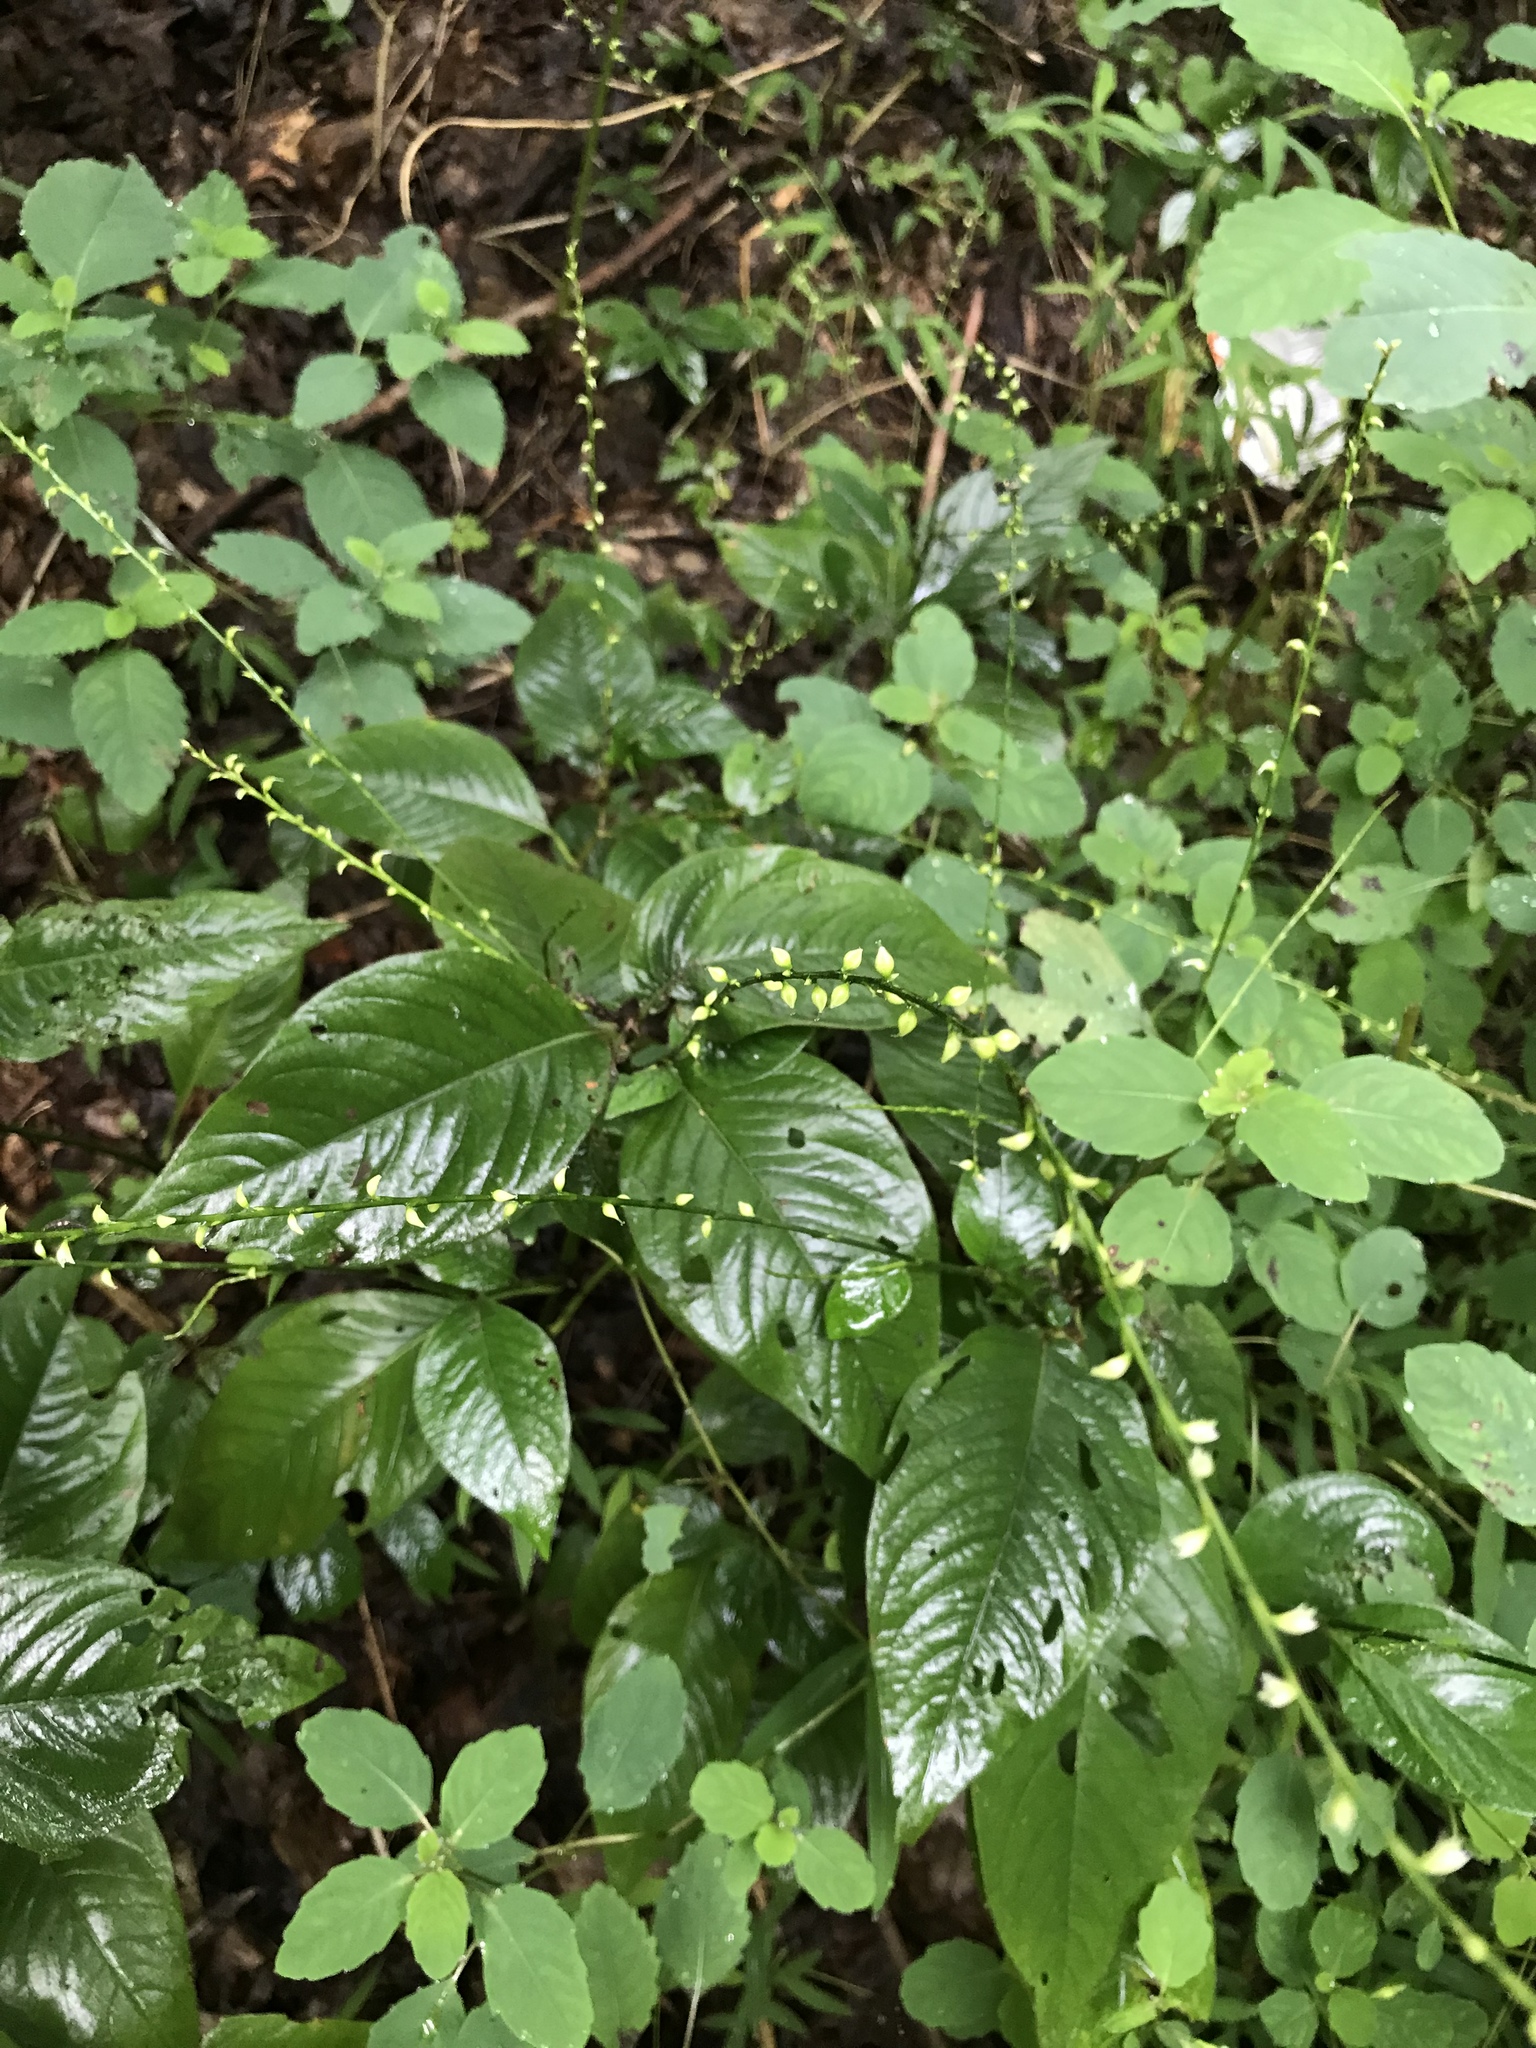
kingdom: Plantae
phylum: Tracheophyta
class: Magnoliopsida
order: Caryophyllales
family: Polygonaceae
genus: Persicaria
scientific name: Persicaria virginiana
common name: Jumpseed
